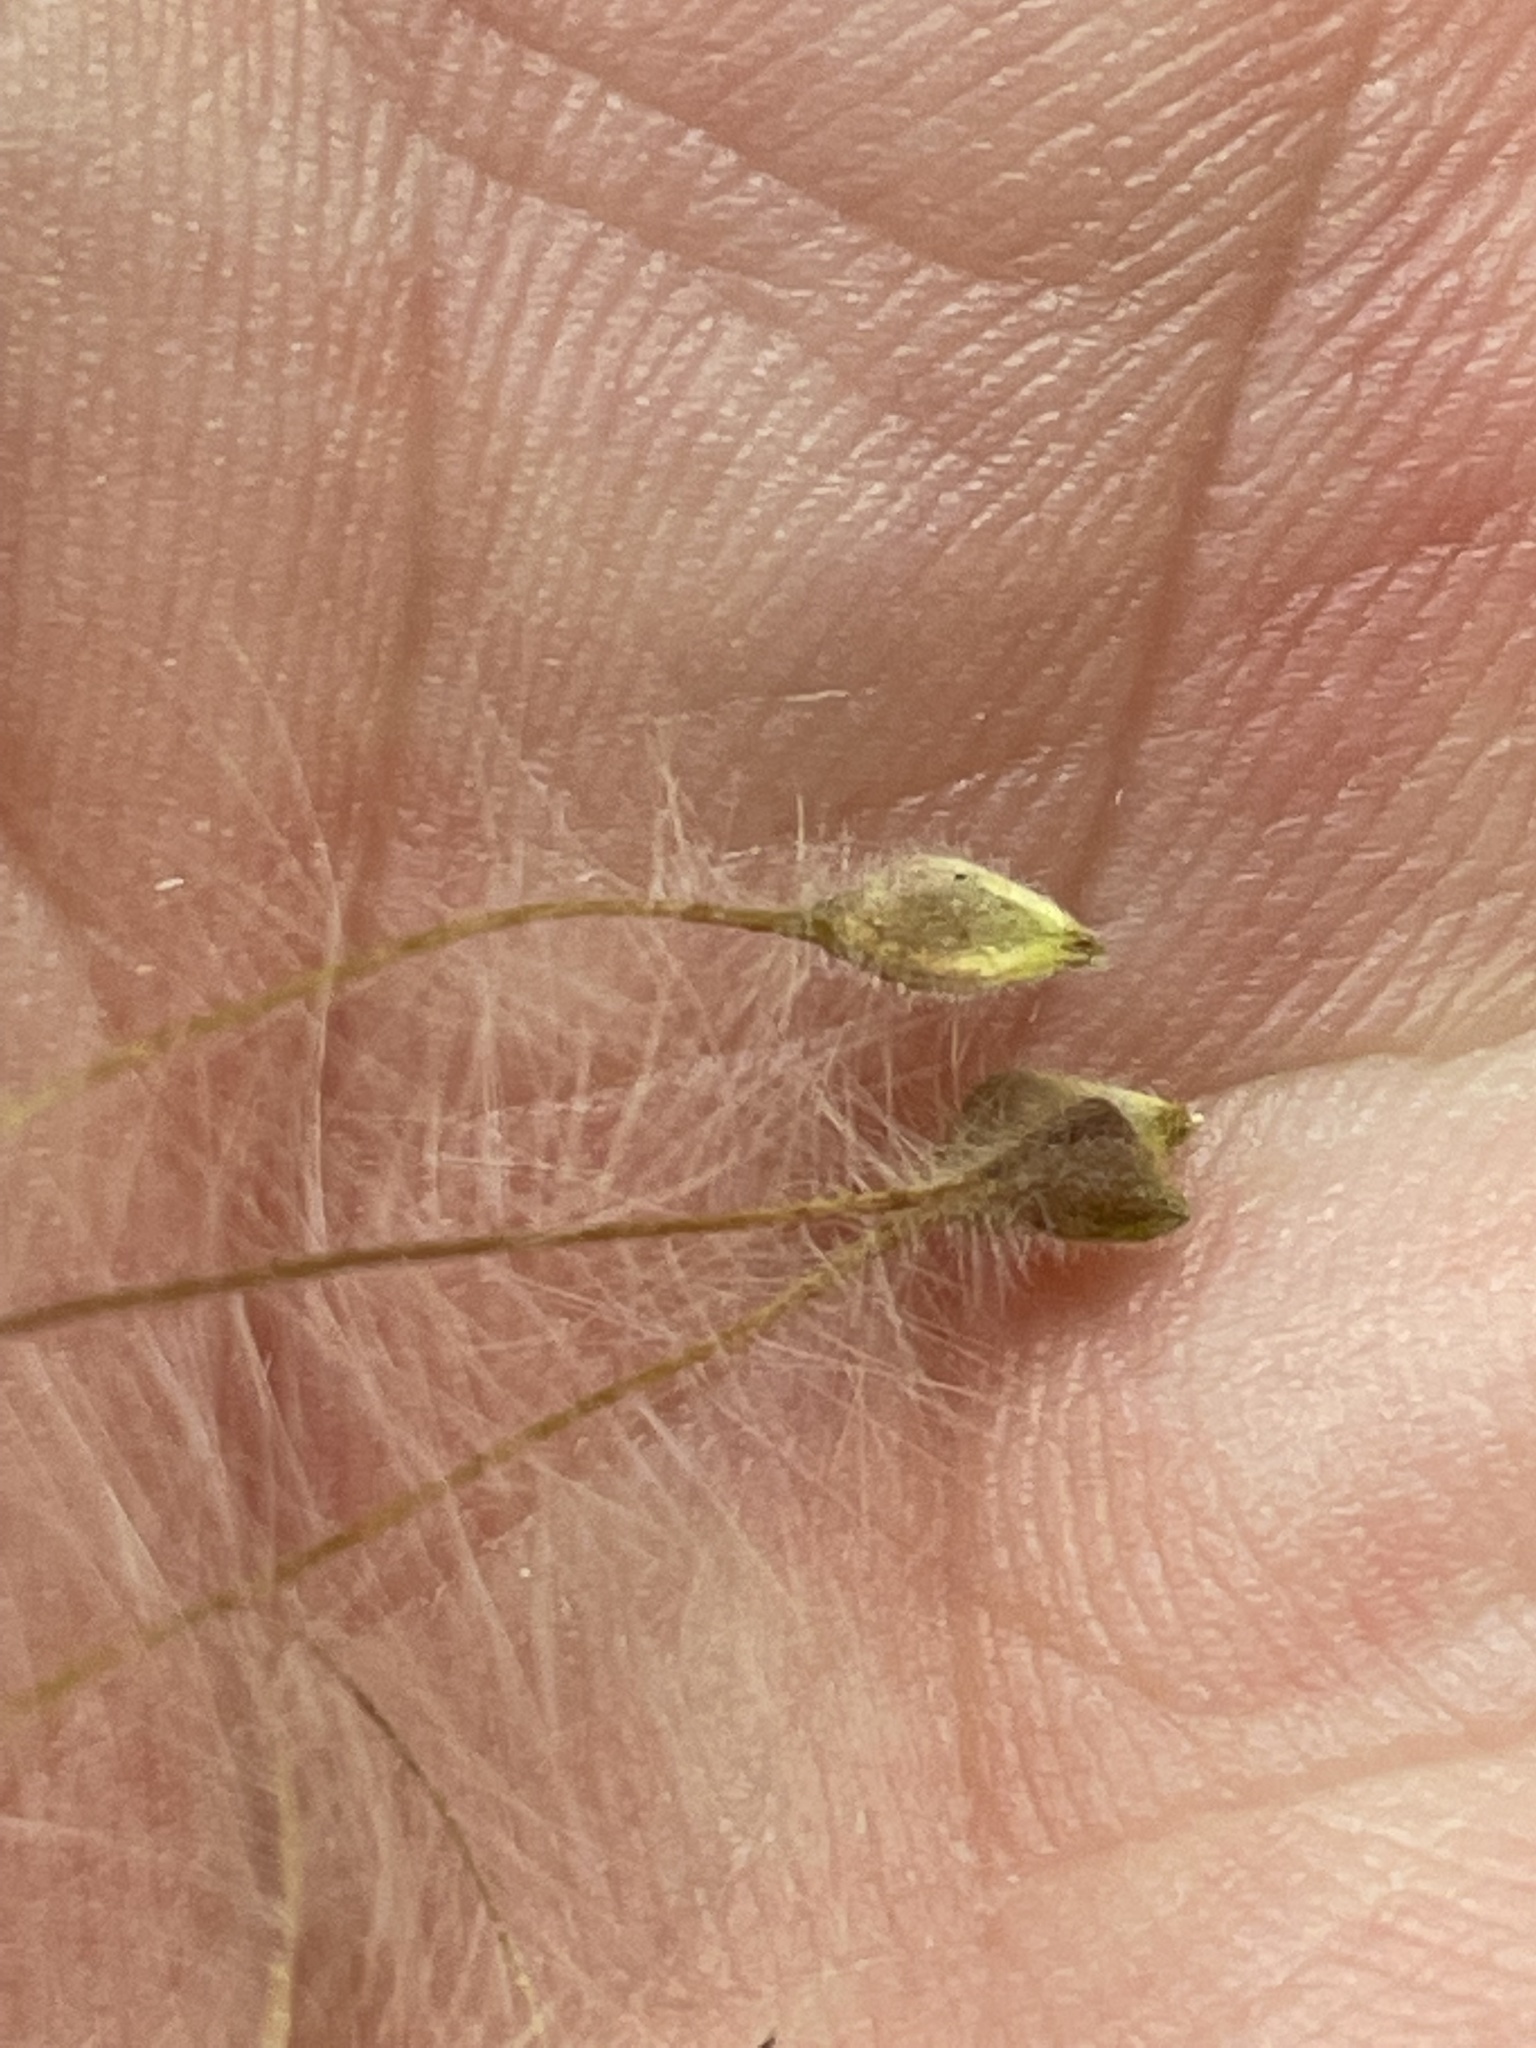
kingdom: Plantae
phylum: Tracheophyta
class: Magnoliopsida
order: Ranunculales
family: Ranunculaceae
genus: Clematis
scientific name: Clematis drummondii
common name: Texas virgin's bower
